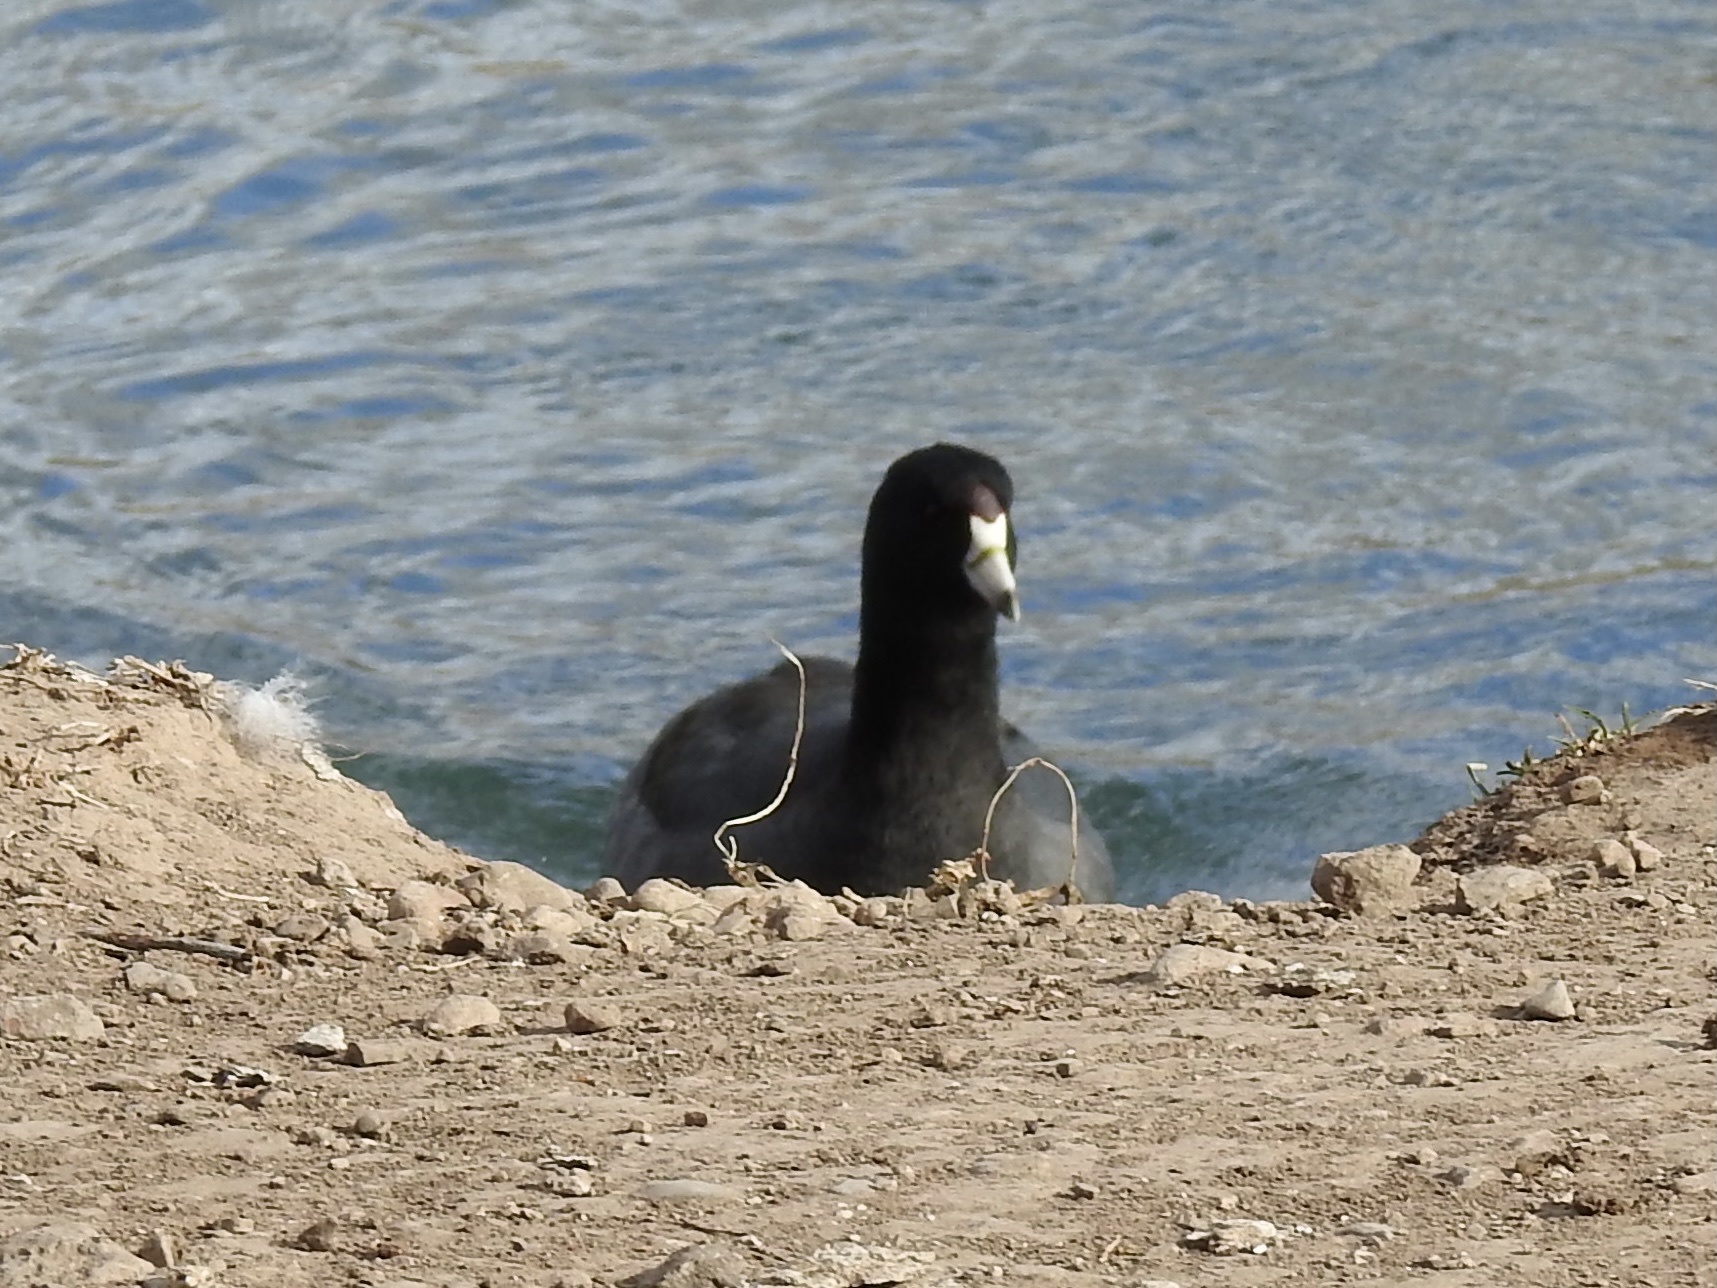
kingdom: Animalia
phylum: Chordata
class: Aves
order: Gruiformes
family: Rallidae
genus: Fulica
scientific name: Fulica americana
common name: American coot
